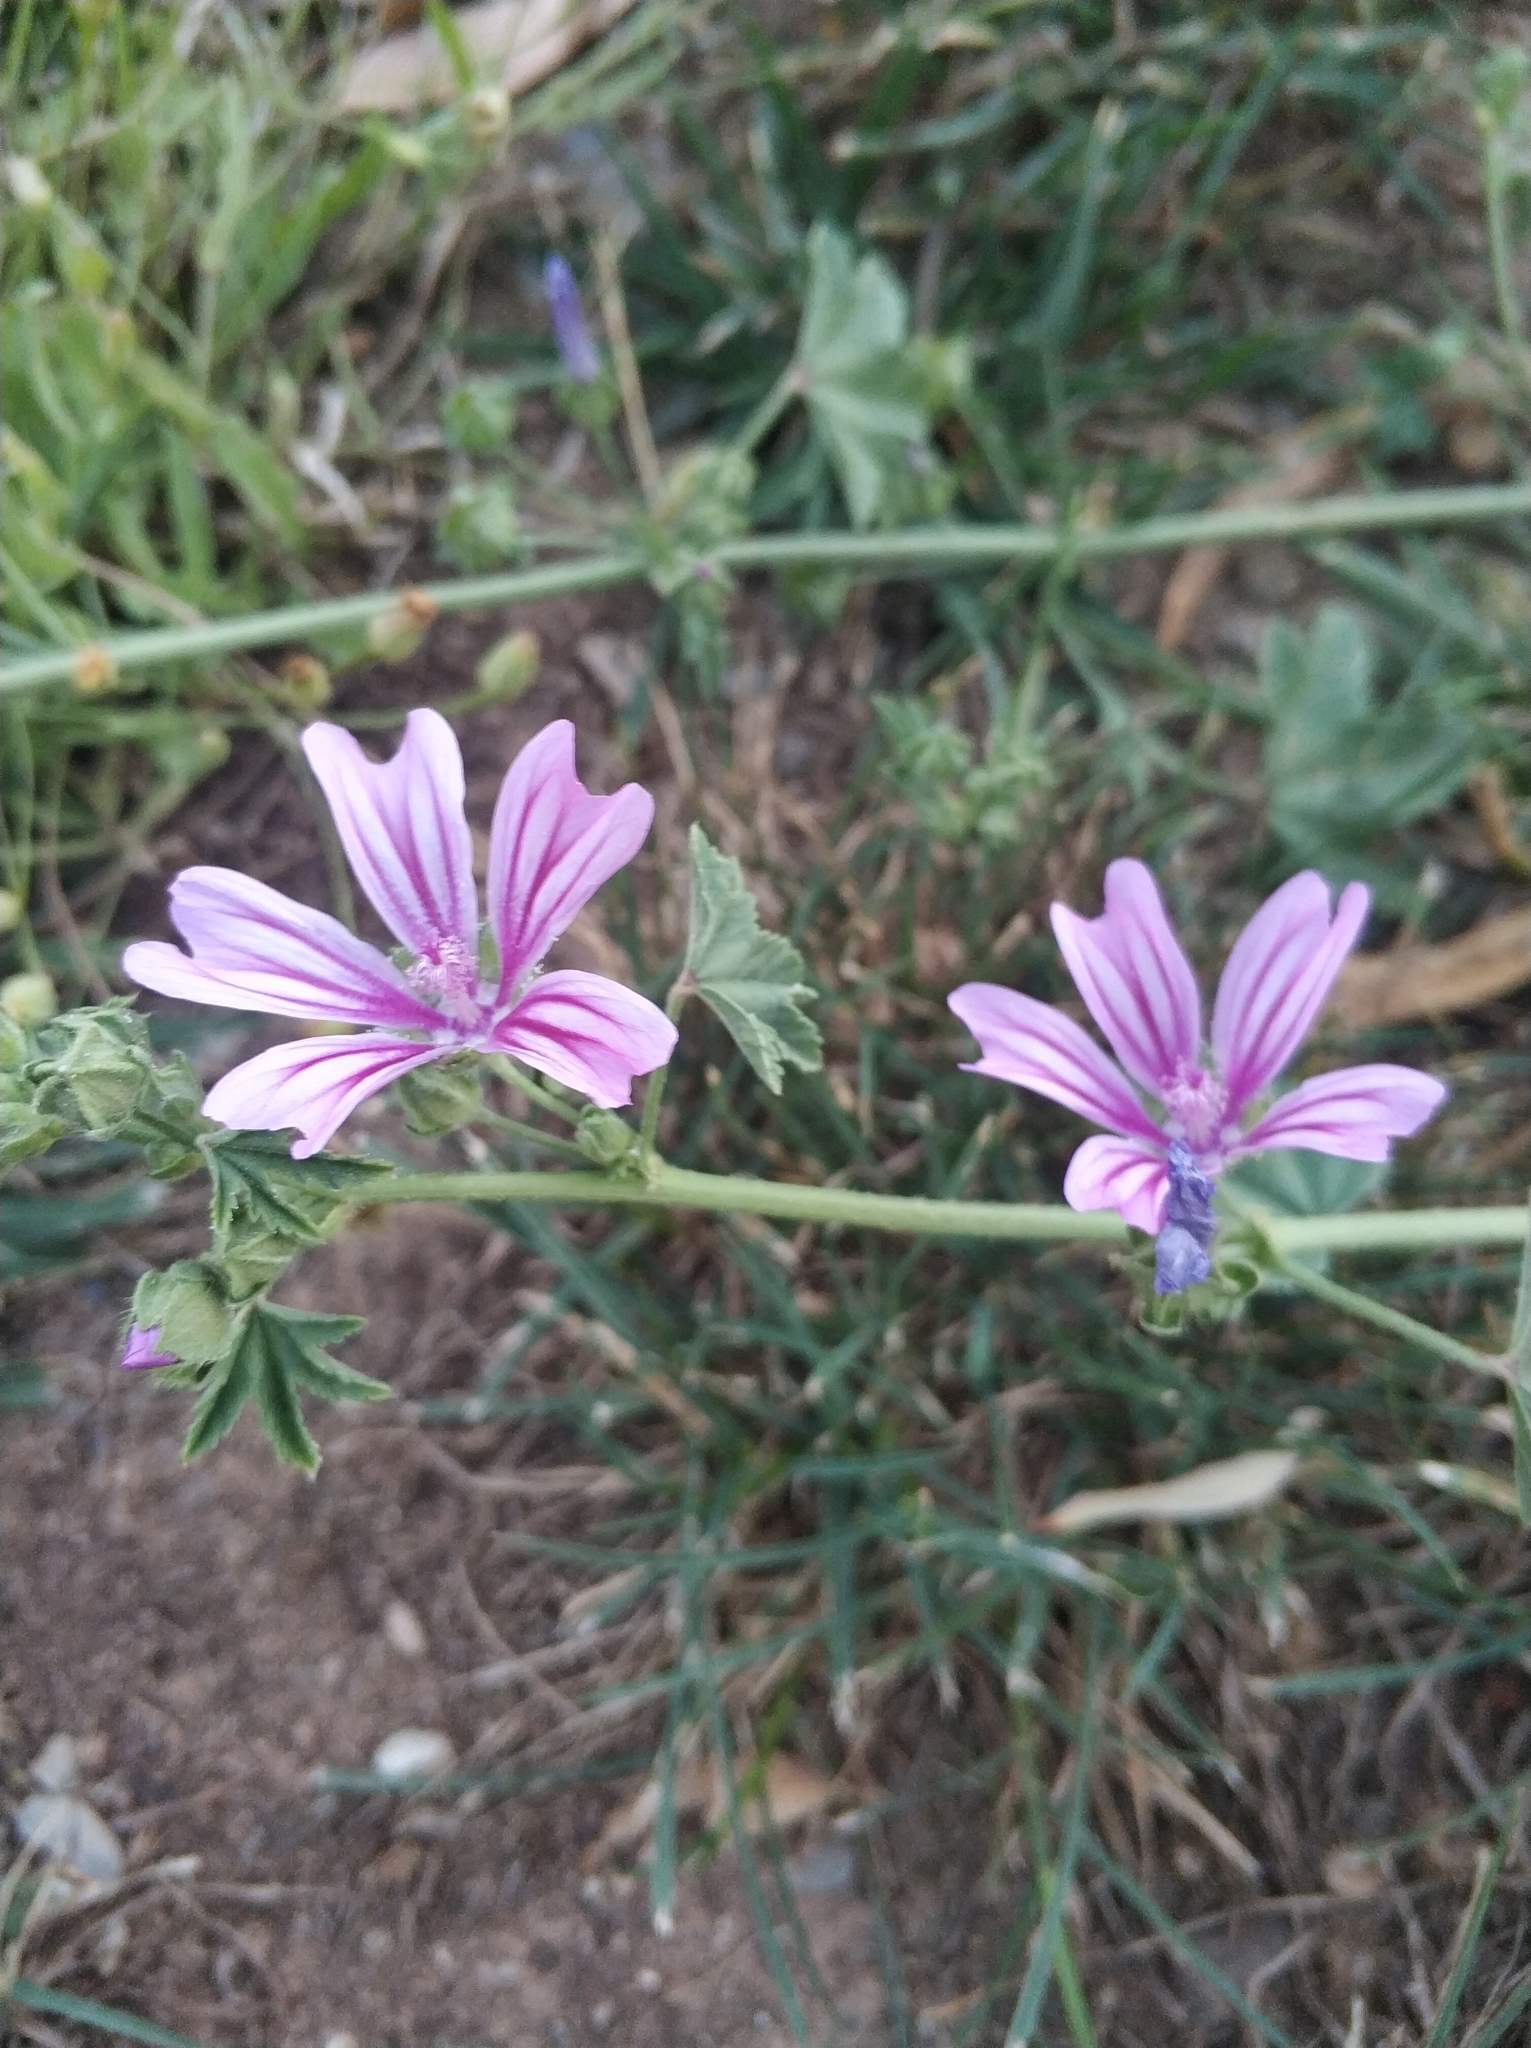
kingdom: Plantae
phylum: Tracheophyta
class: Magnoliopsida
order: Malvales
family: Malvaceae
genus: Malva
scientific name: Malva sylvestris
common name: Common mallow
